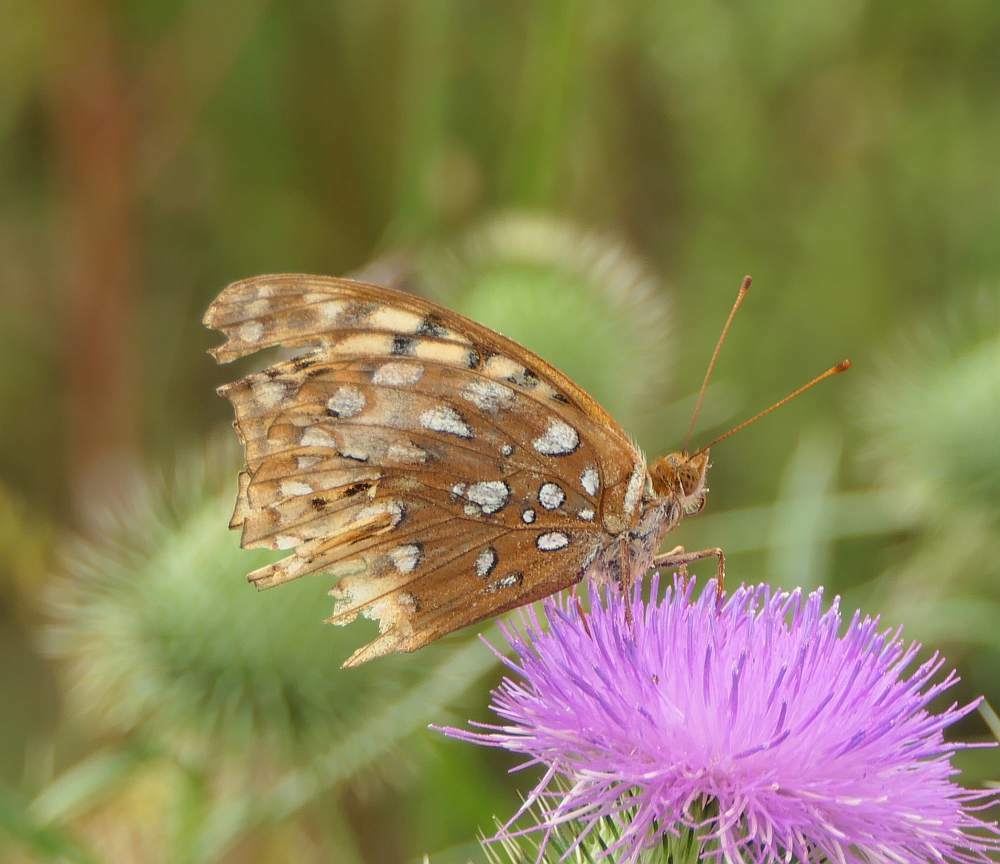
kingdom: Animalia
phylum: Arthropoda
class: Insecta
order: Lepidoptera
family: Nymphalidae
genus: Speyeria
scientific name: Speyeria cybele
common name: Great spangled fritillary
